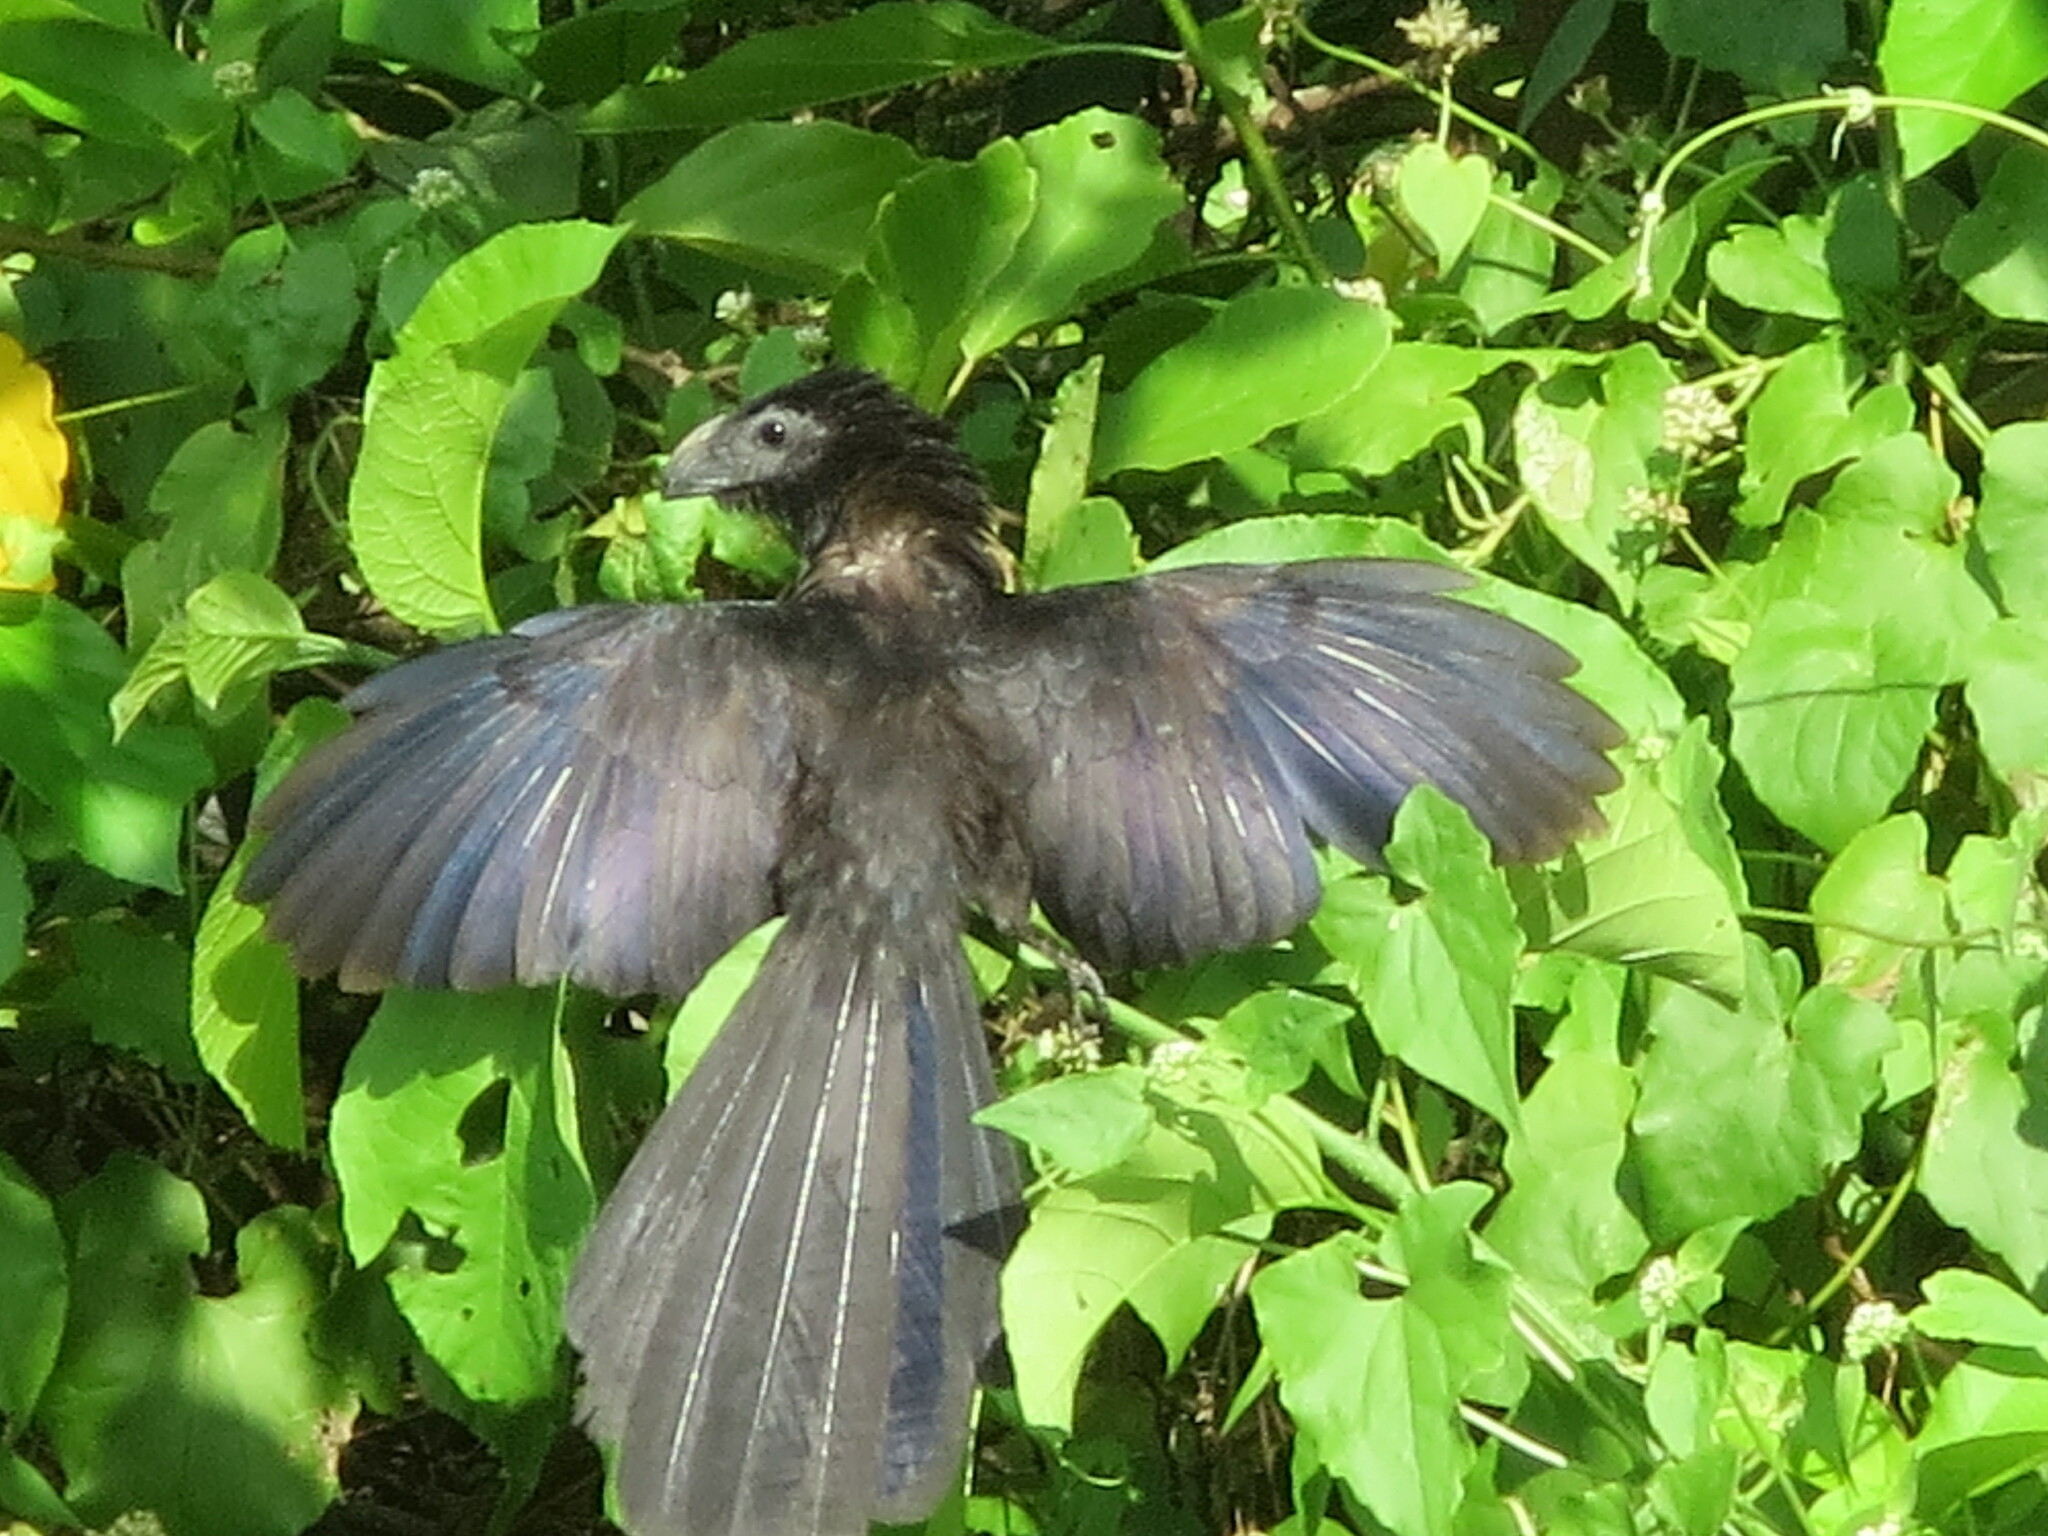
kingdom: Animalia
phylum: Chordata
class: Aves
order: Cuculiformes
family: Cuculidae
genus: Crotophaga
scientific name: Crotophaga sulcirostris
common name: Groove-billed ani
